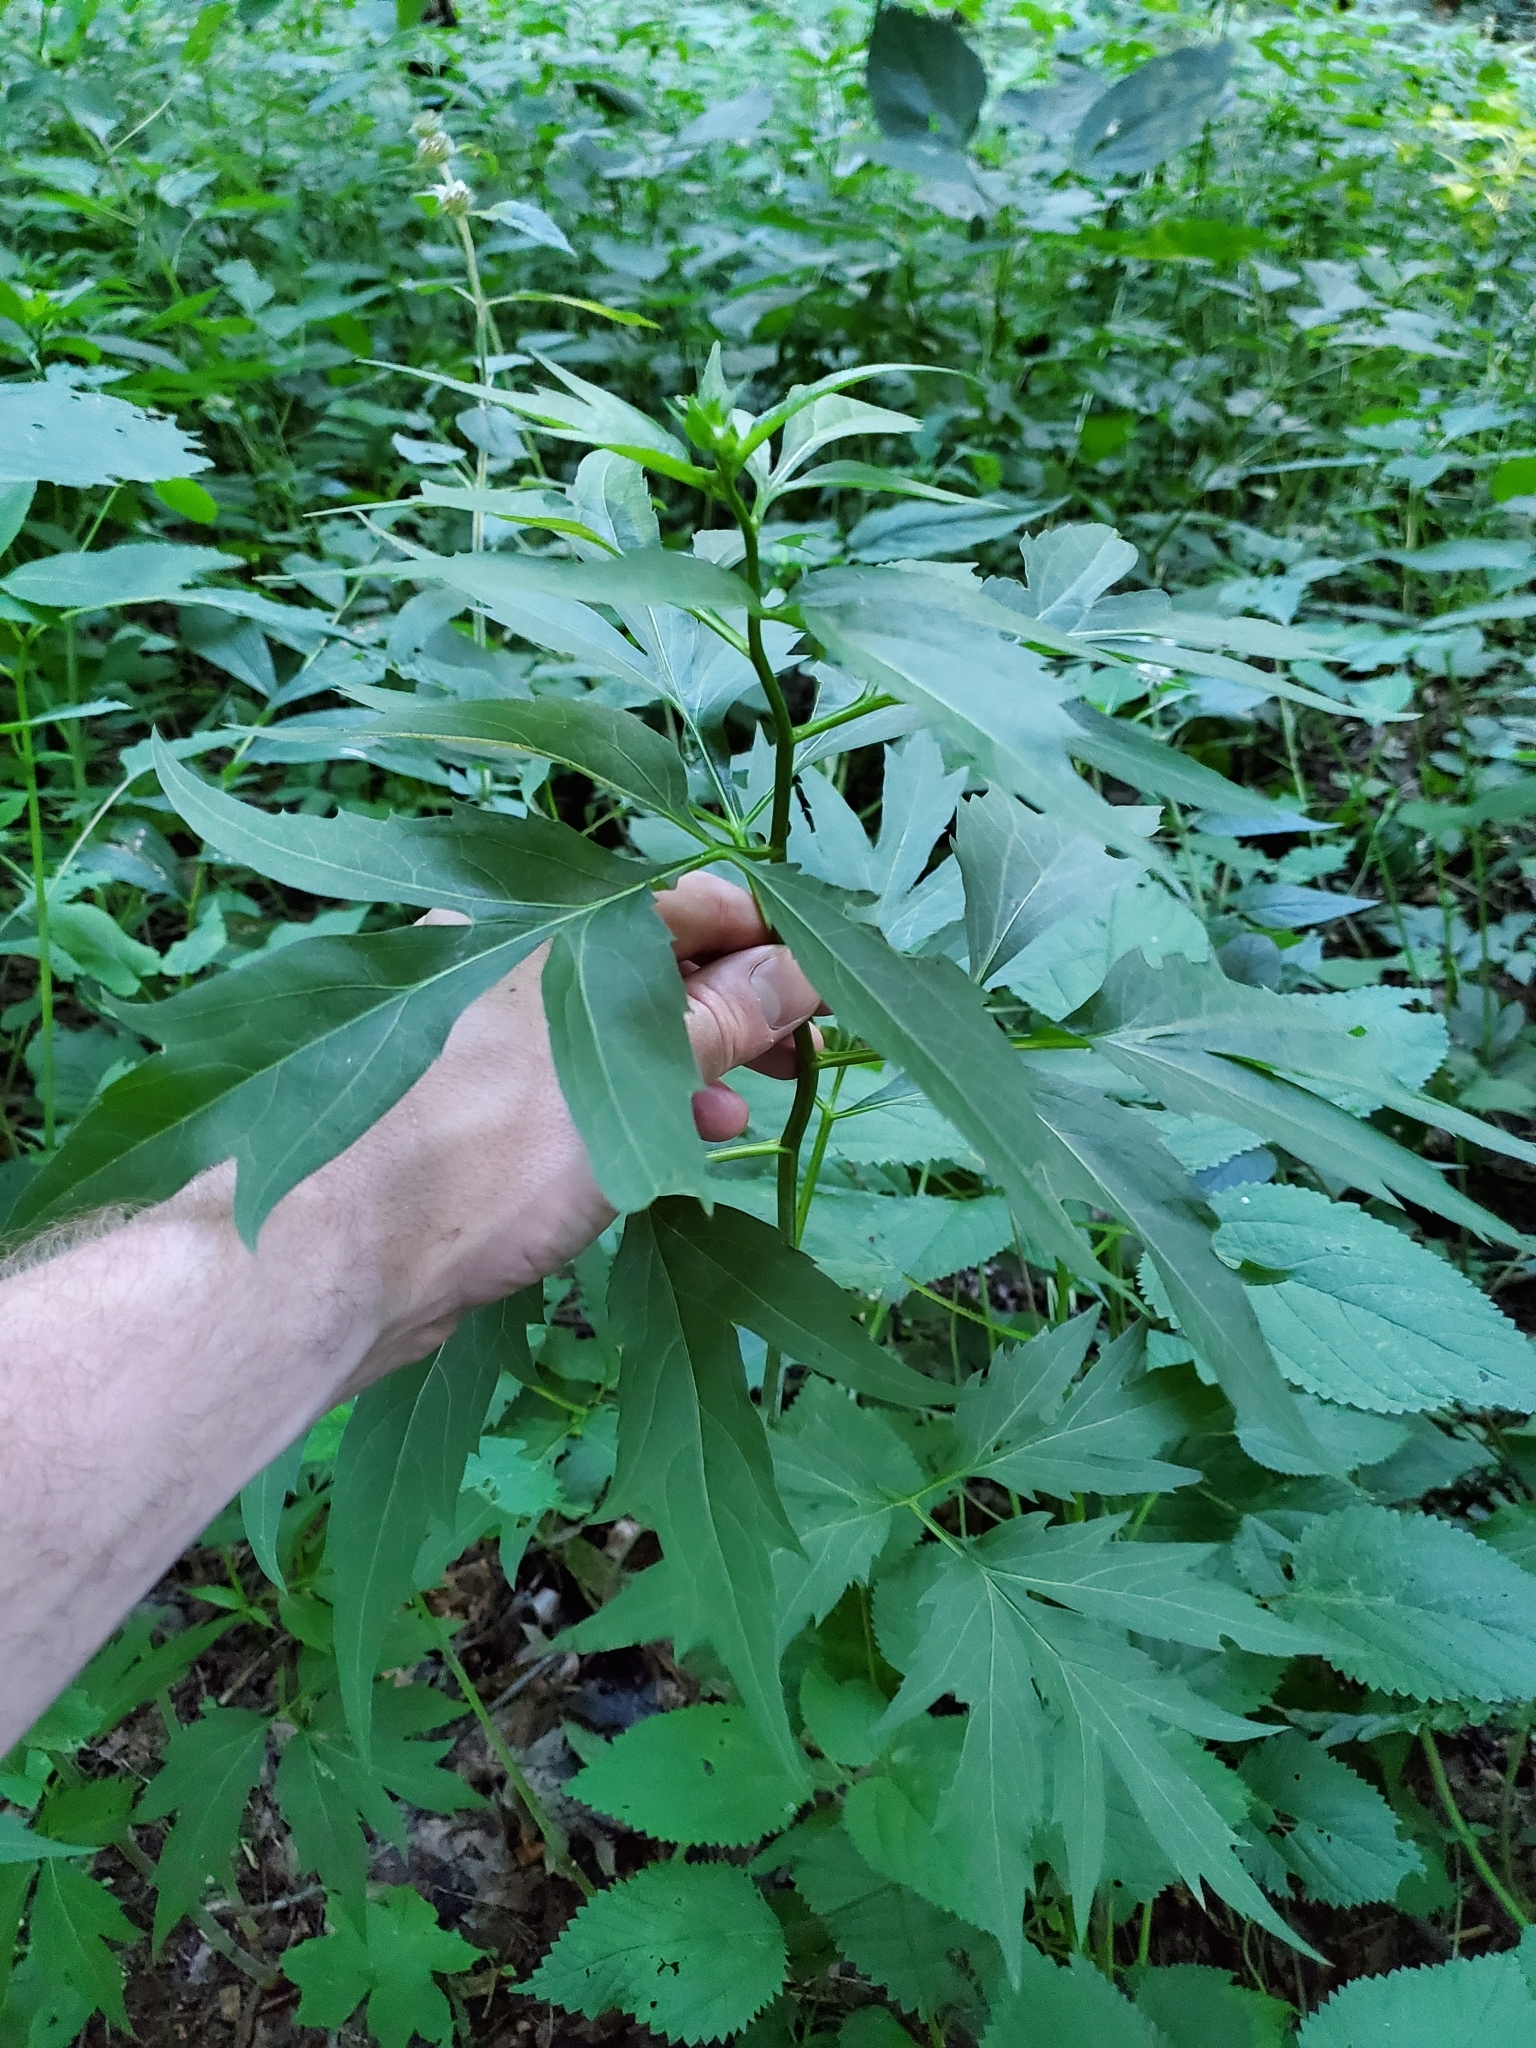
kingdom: Plantae
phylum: Tracheophyta
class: Magnoliopsida
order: Asterales
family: Asteraceae
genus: Rudbeckia
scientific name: Rudbeckia laciniata
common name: Coneflower
